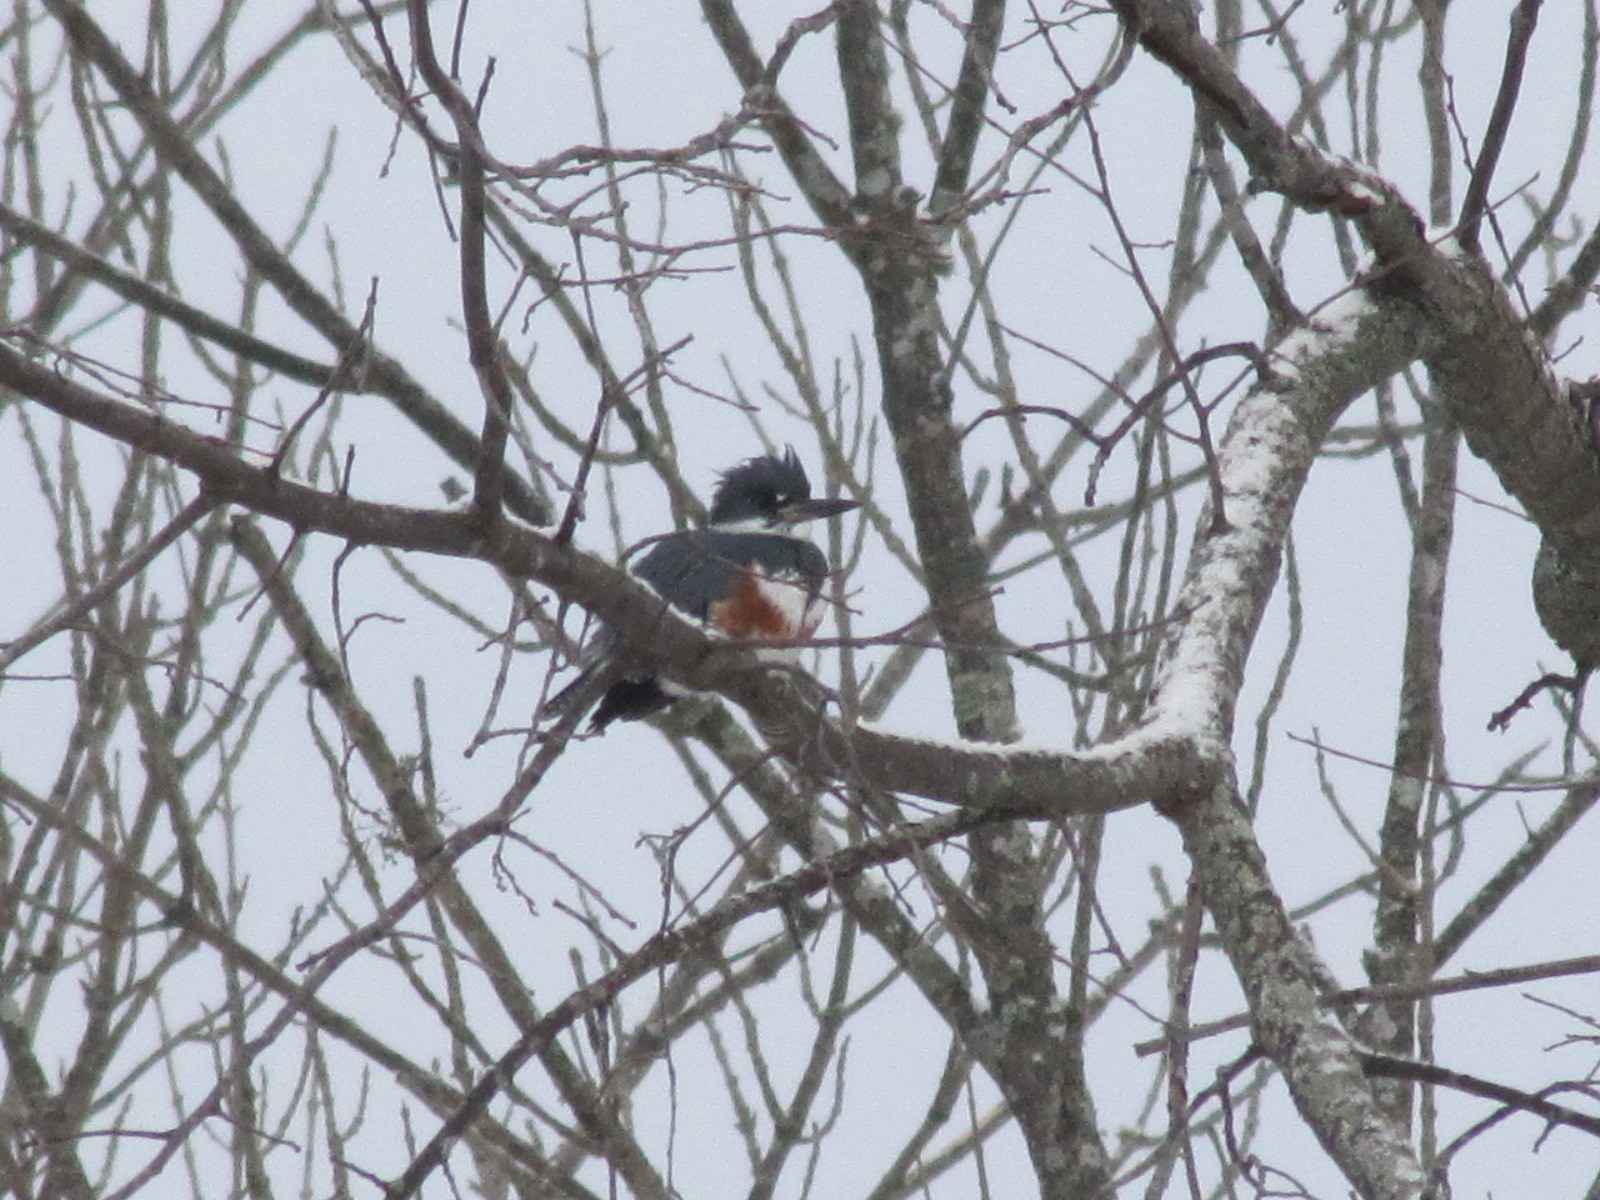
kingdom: Animalia
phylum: Chordata
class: Aves
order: Coraciiformes
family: Alcedinidae
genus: Megaceryle
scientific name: Megaceryle alcyon
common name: Belted kingfisher
